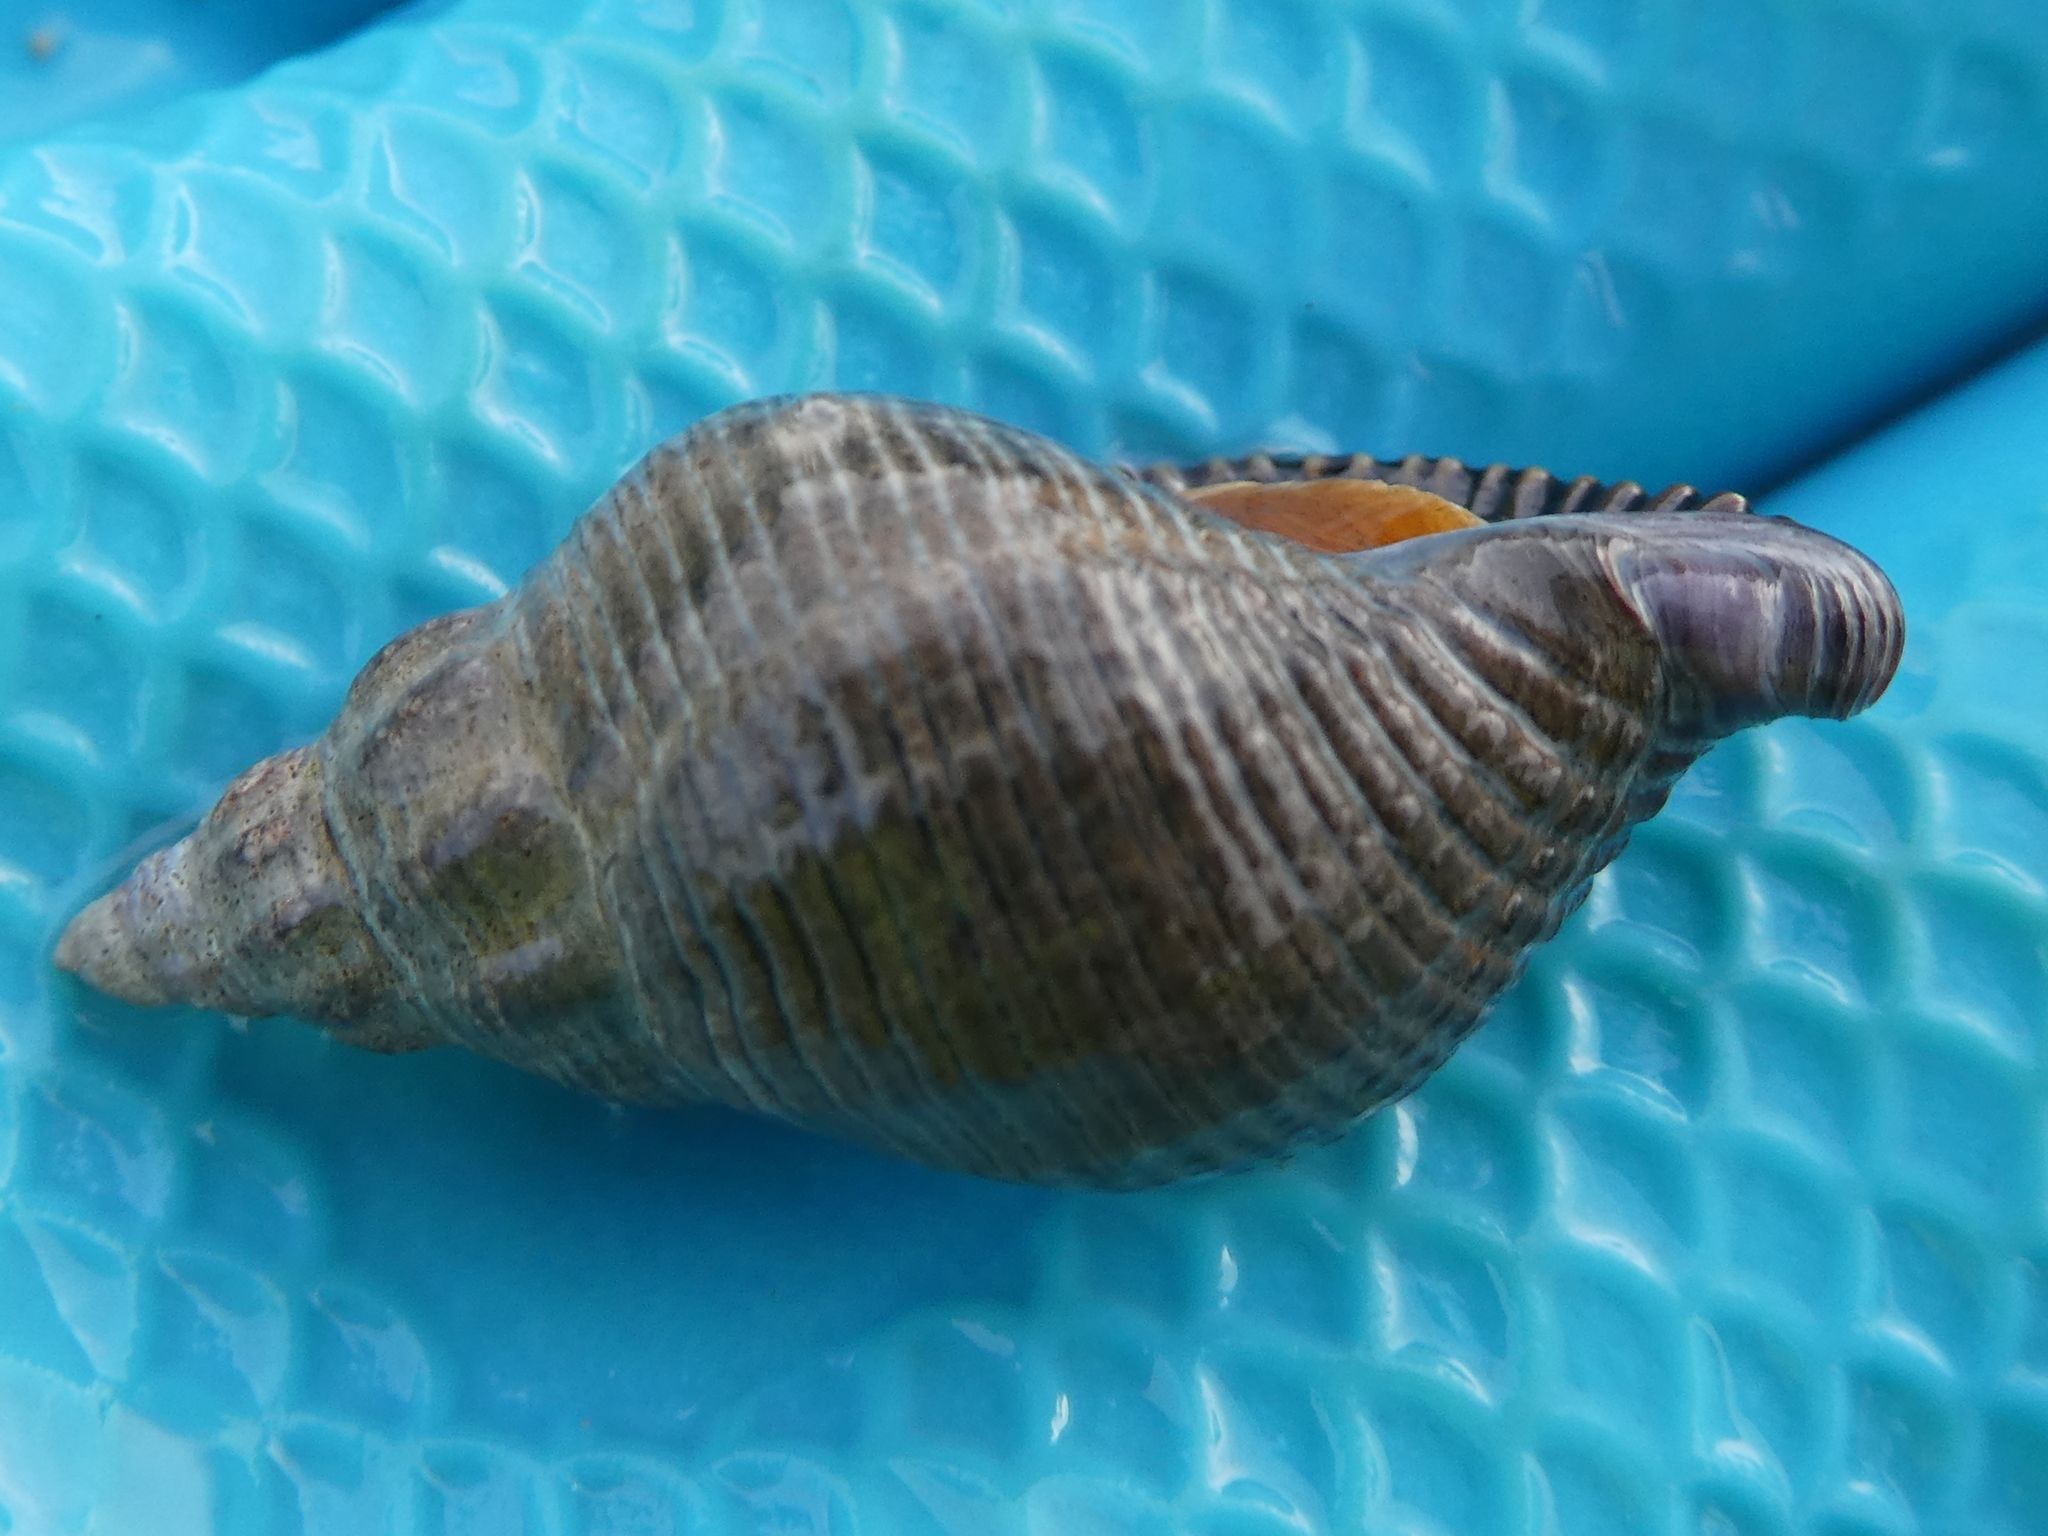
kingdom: Animalia
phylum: Mollusca
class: Gastropoda
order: Neogastropoda
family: Tudiclidae
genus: Lirabuccinum
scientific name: Lirabuccinum dirum
